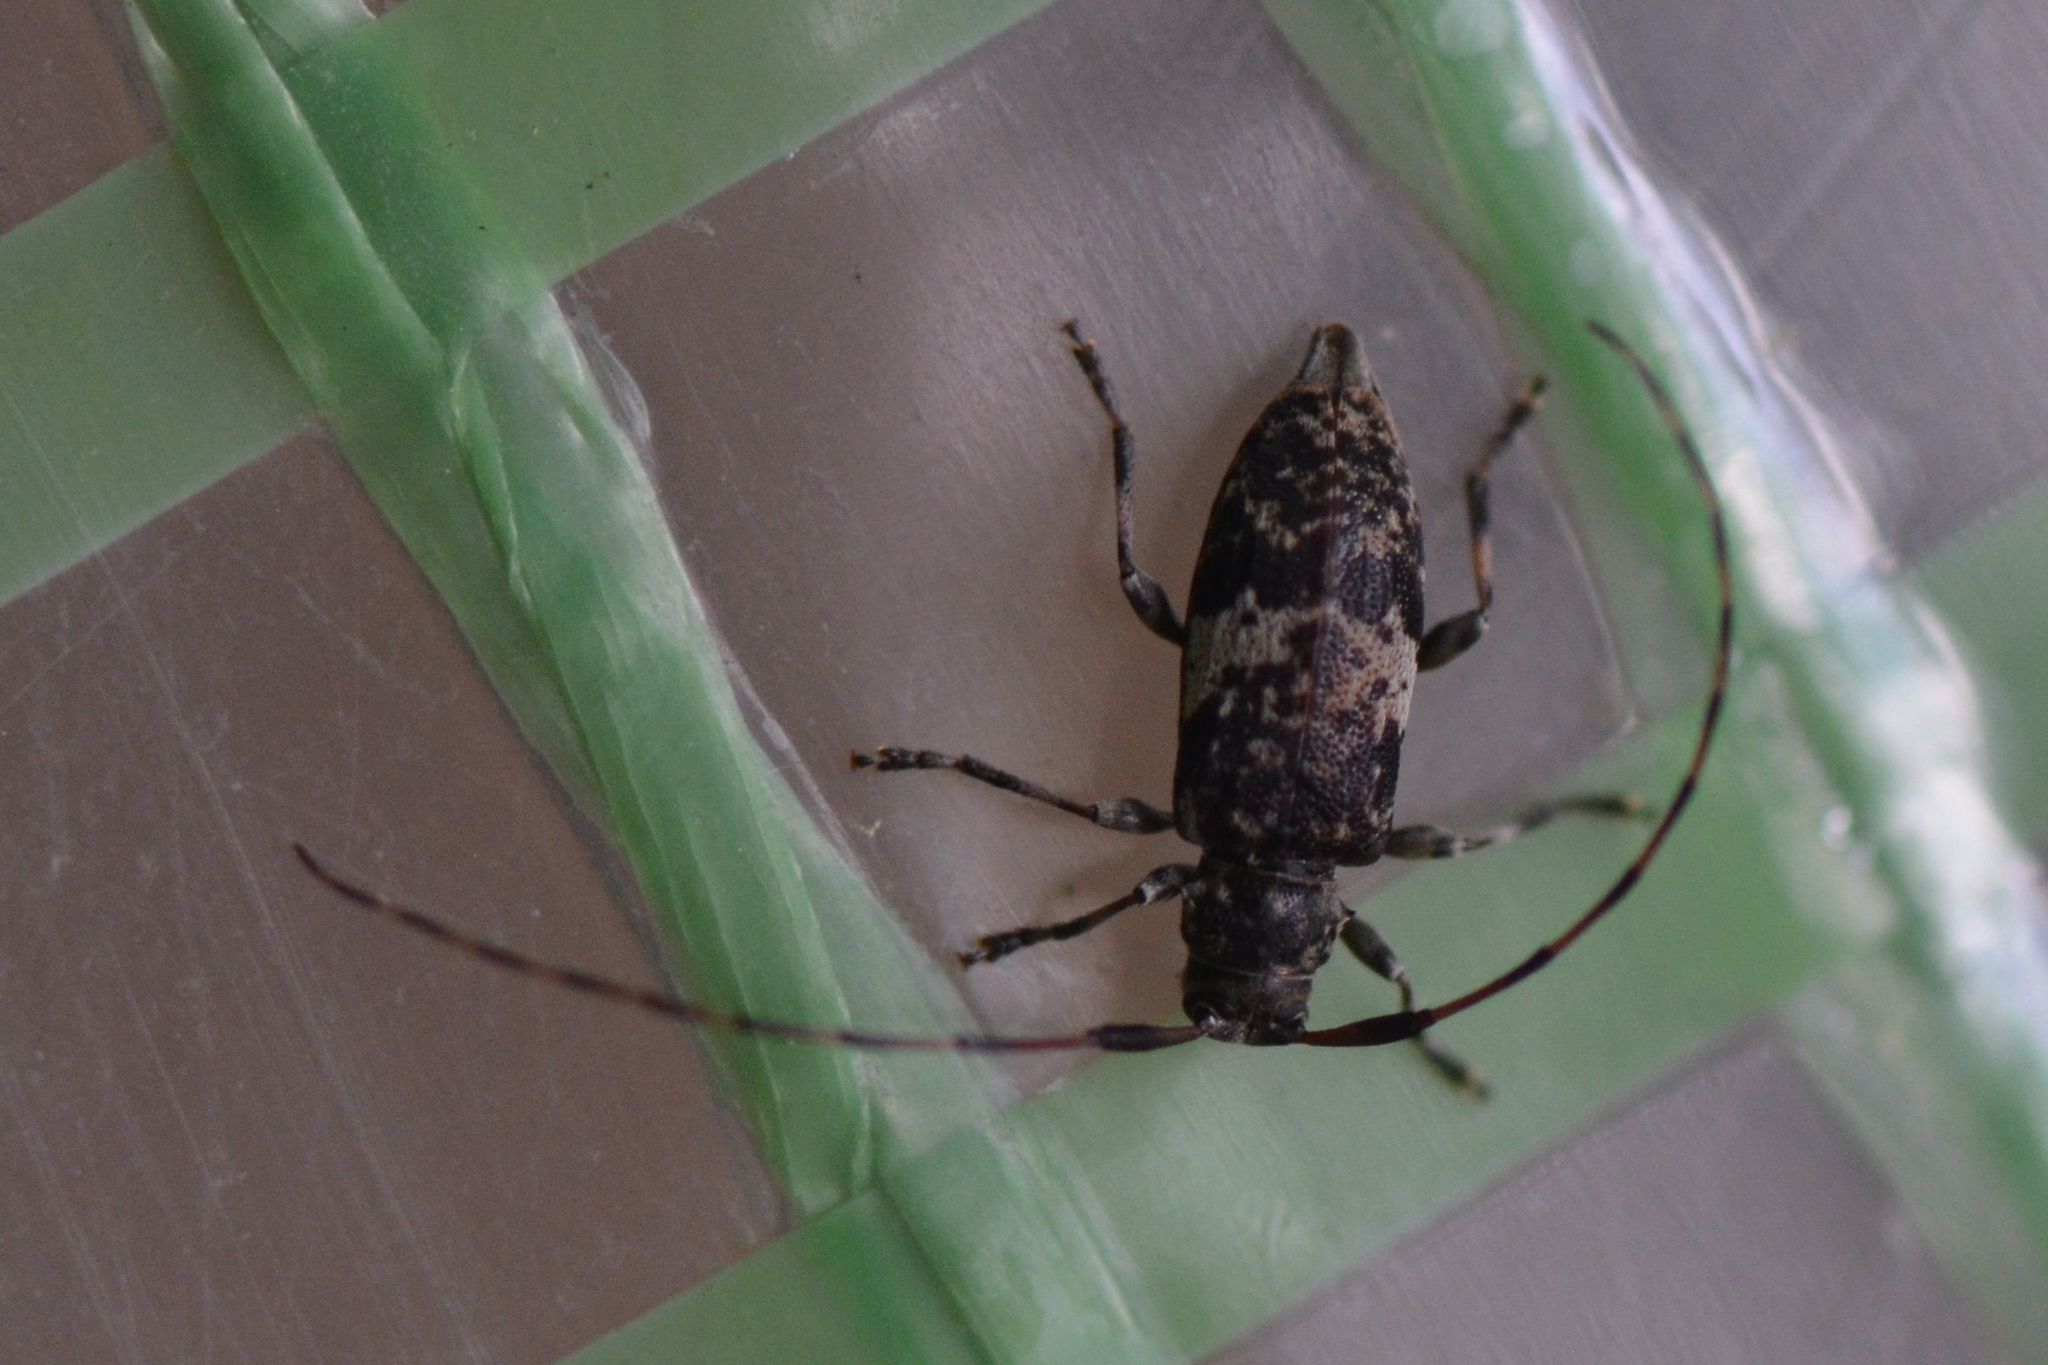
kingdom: Animalia
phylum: Arthropoda
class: Insecta
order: Coleoptera
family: Cerambycidae
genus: Leiopus
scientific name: Leiopus nebulosus
